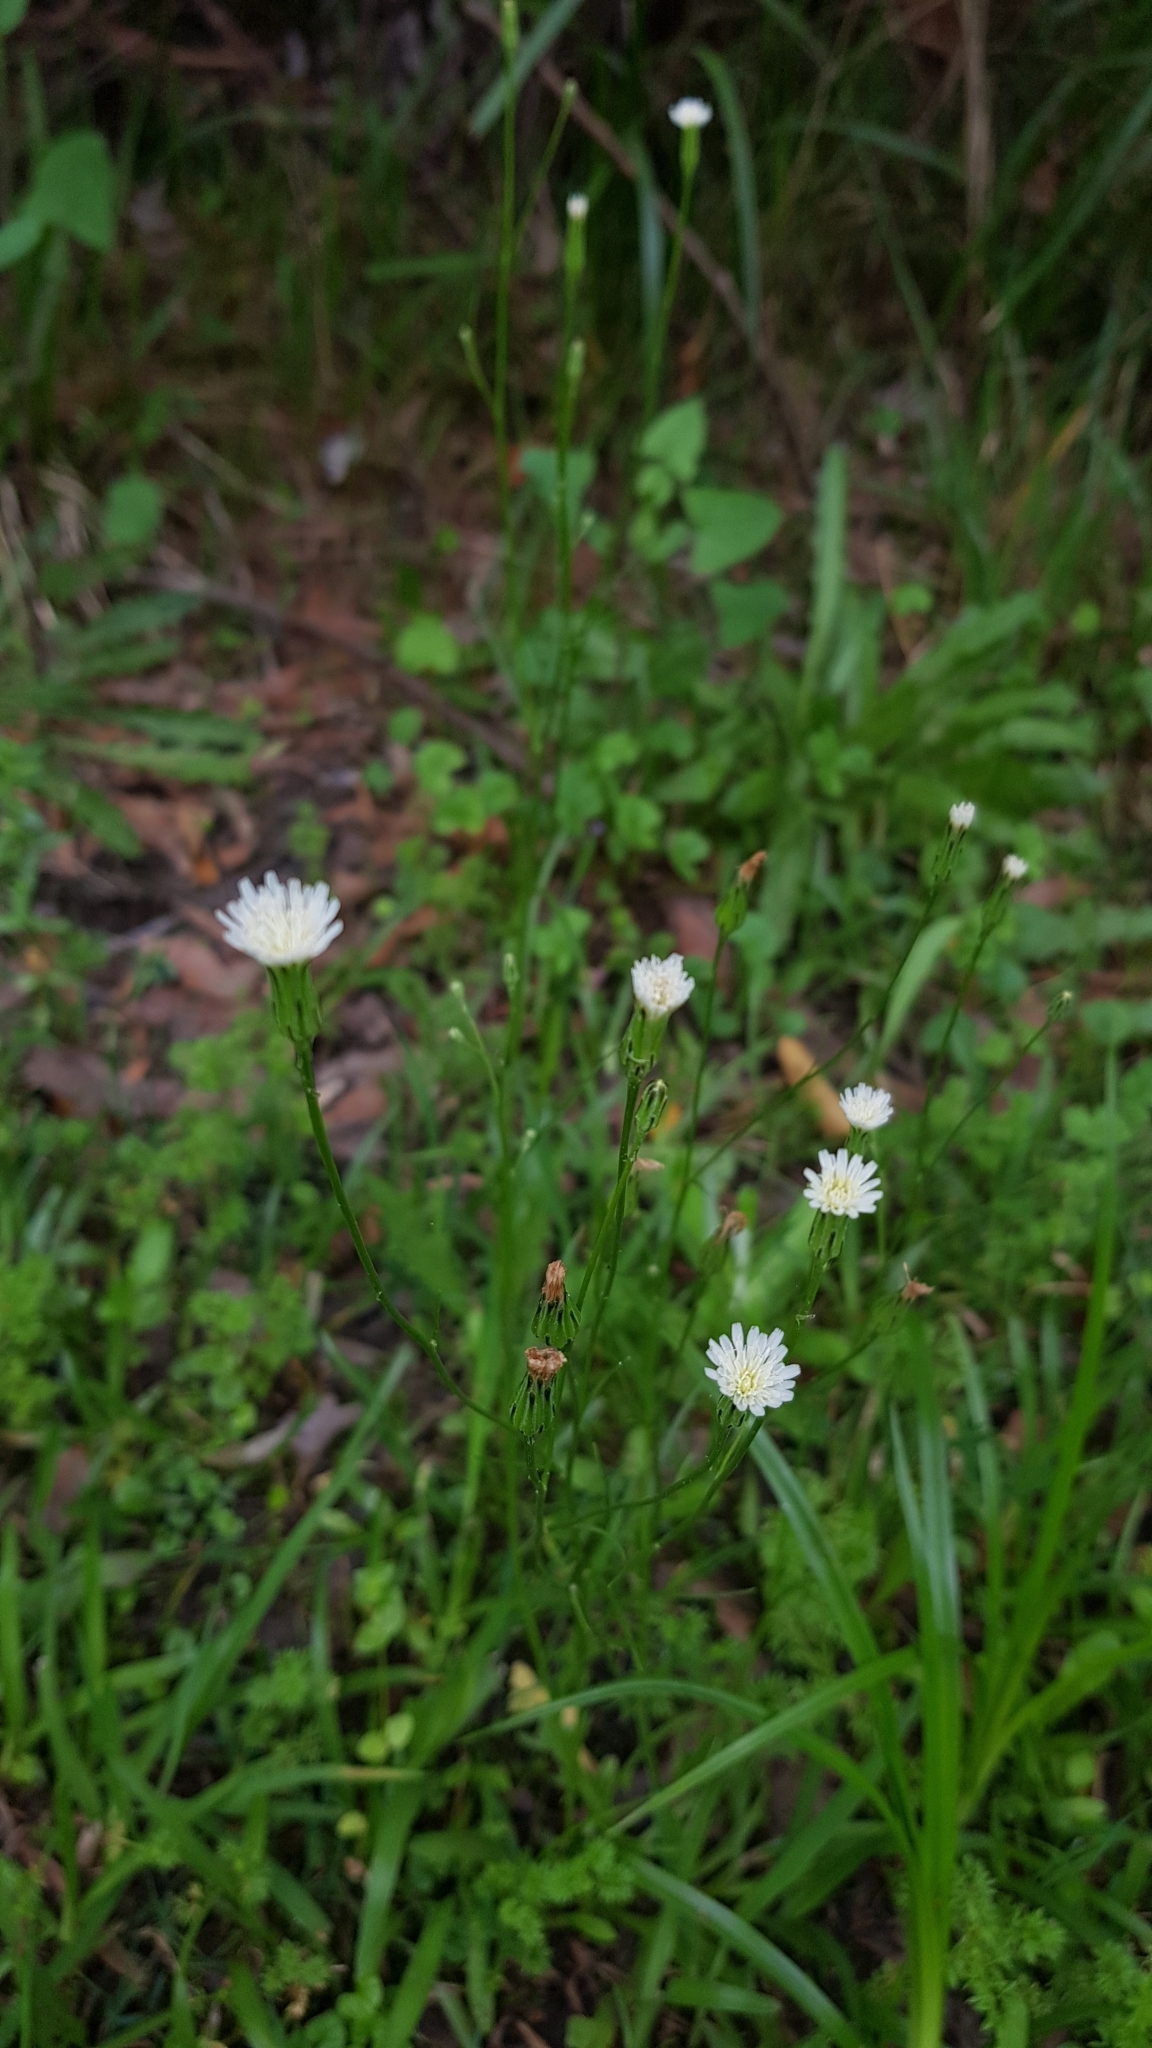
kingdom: Plantae
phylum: Tracheophyta
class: Magnoliopsida
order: Asterales
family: Asteraceae
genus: Hypochaeris
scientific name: Hypochaeris albiflora
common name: White flatweed
